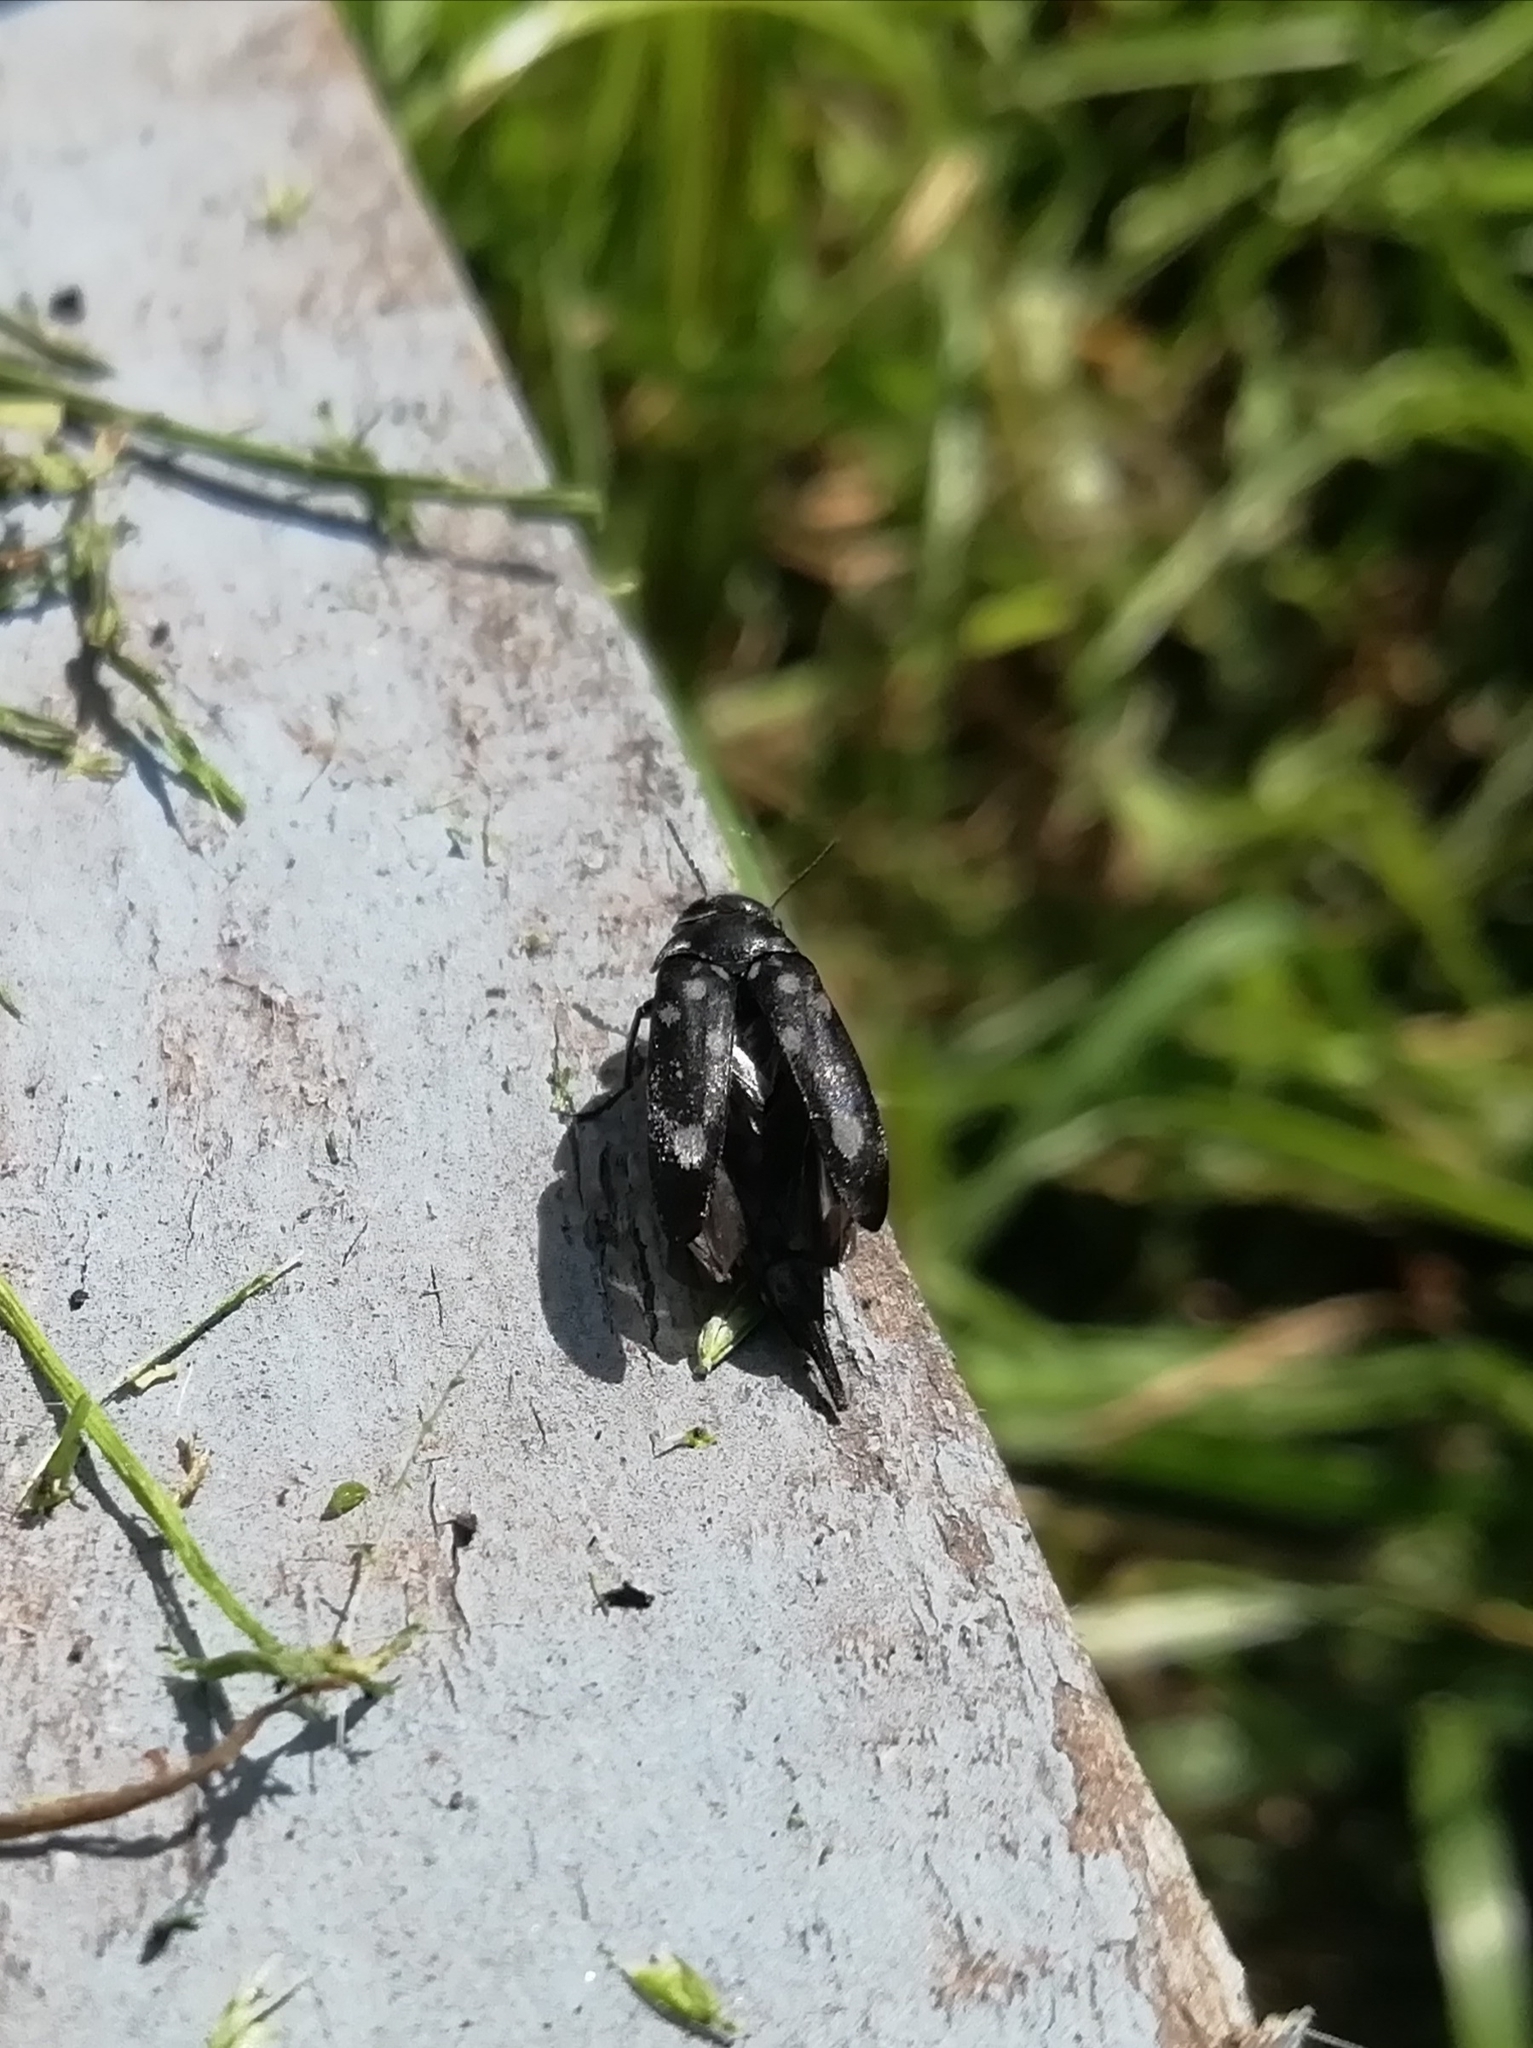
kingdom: Animalia
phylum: Arthropoda
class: Insecta
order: Coleoptera
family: Mordellidae
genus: Hoshihananomia
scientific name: Hoshihananomia perlata
